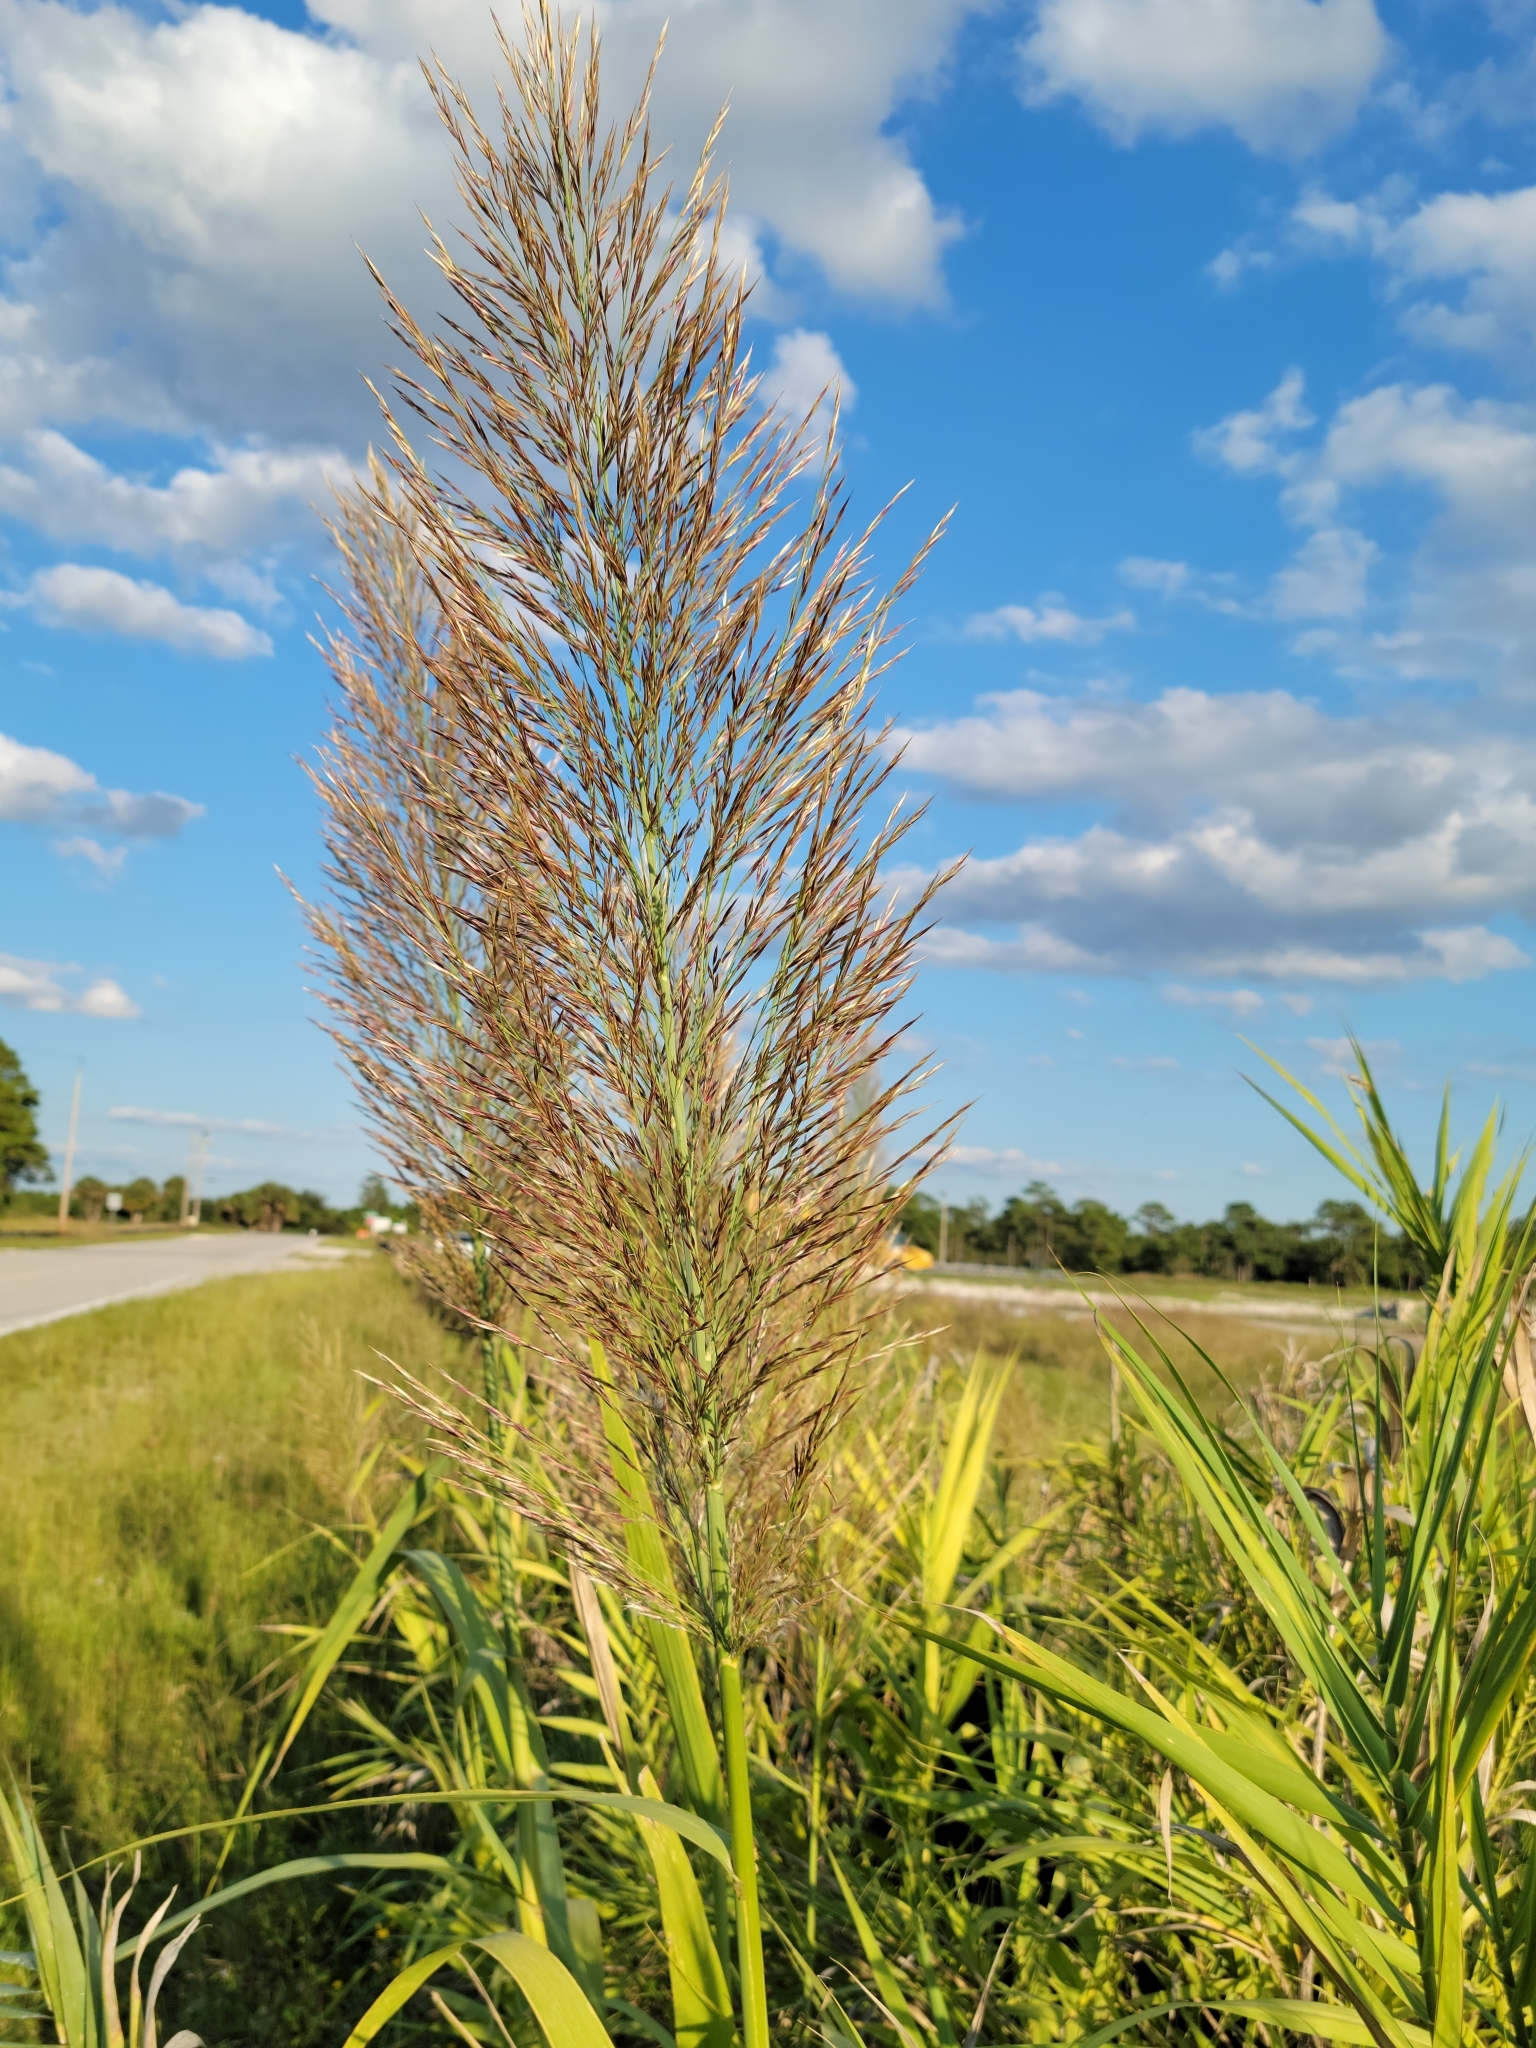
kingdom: Plantae
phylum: Tracheophyta
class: Liliopsida
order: Poales
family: Poaceae
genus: Arundo
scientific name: Arundo donax
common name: Giant reed
